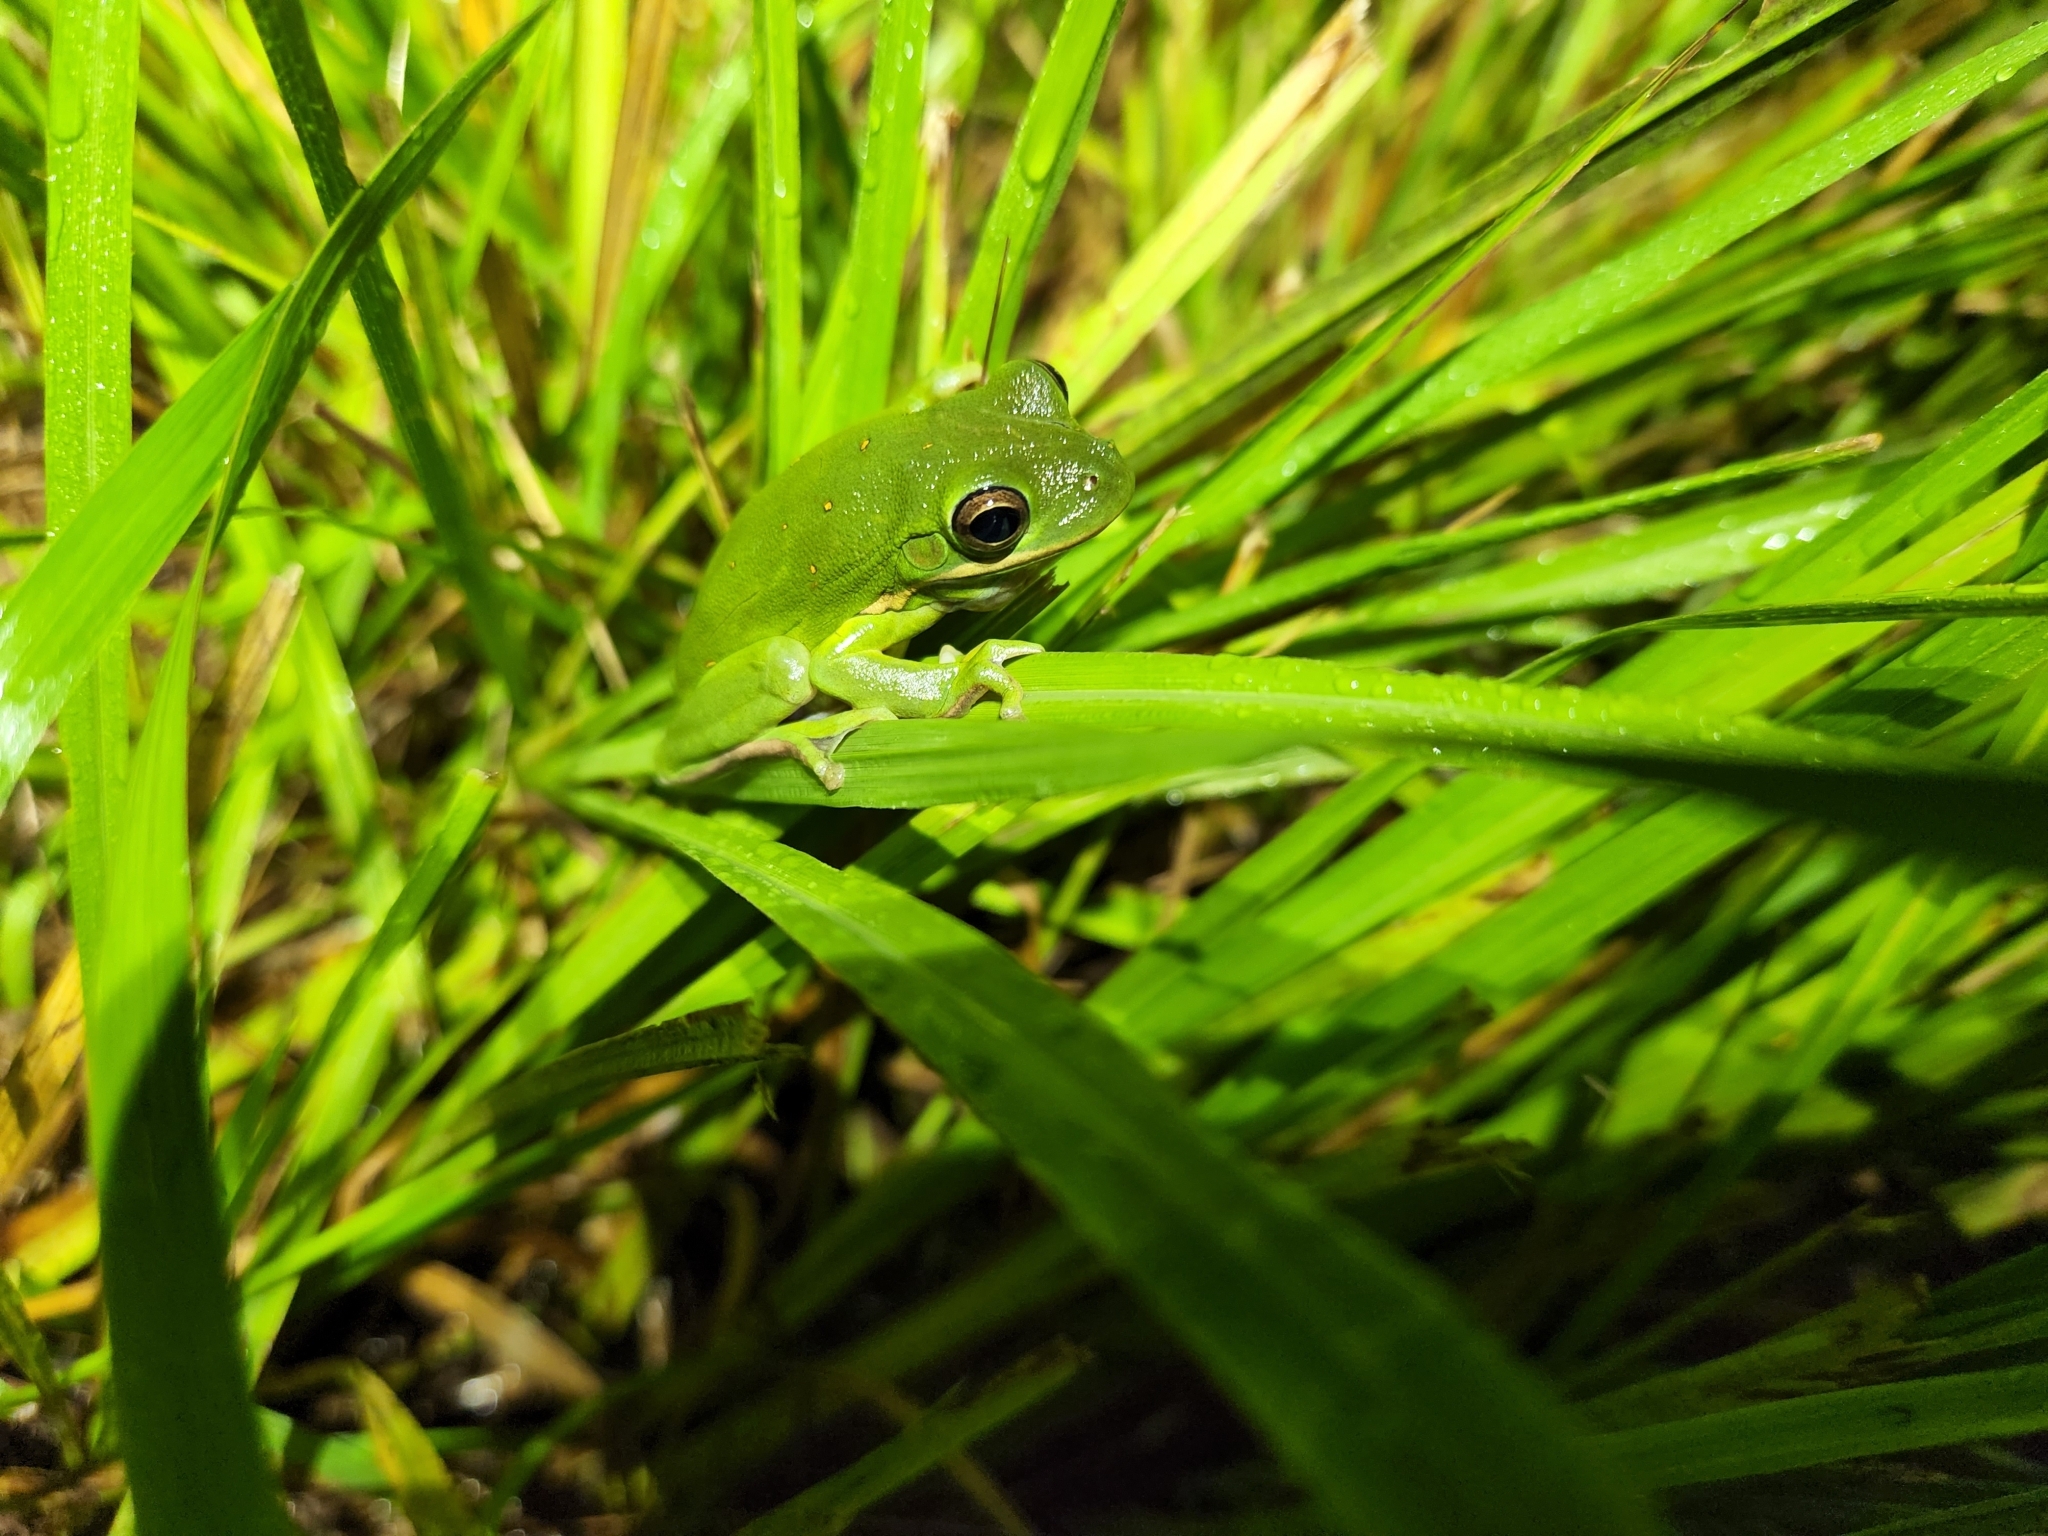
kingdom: Animalia
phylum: Chordata
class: Amphibia
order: Anura
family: Hylidae
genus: Dryophytes
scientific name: Dryophytes cinereus
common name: Green treefrog
